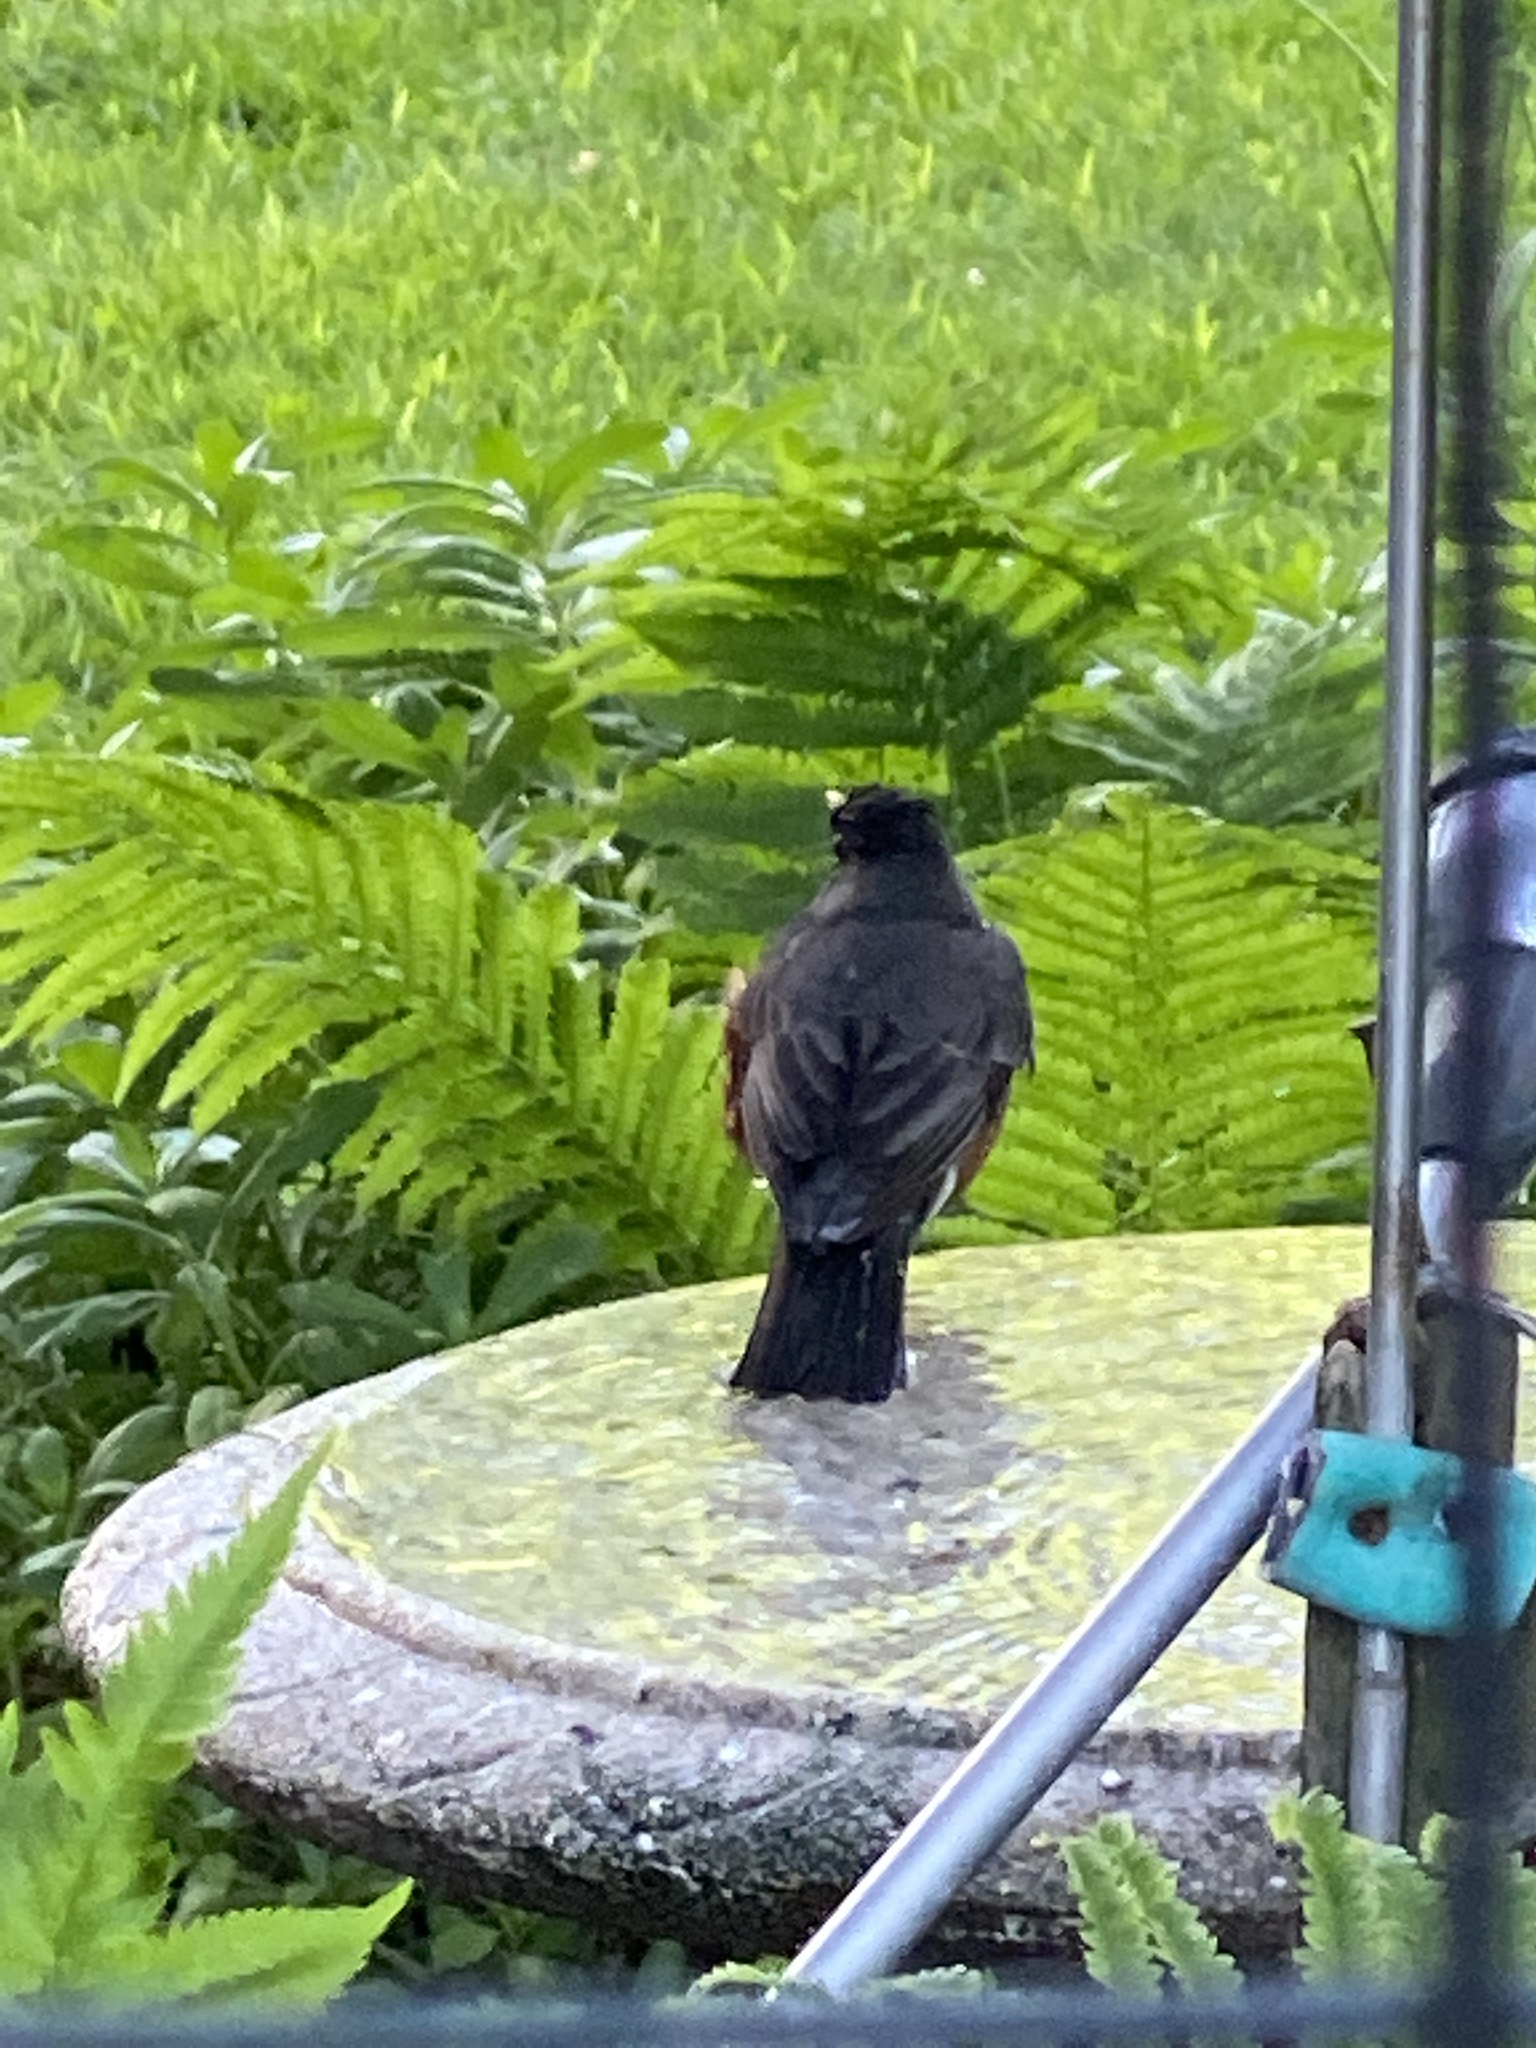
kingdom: Animalia
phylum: Chordata
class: Aves
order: Passeriformes
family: Turdidae
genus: Turdus
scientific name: Turdus migratorius
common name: American robin
